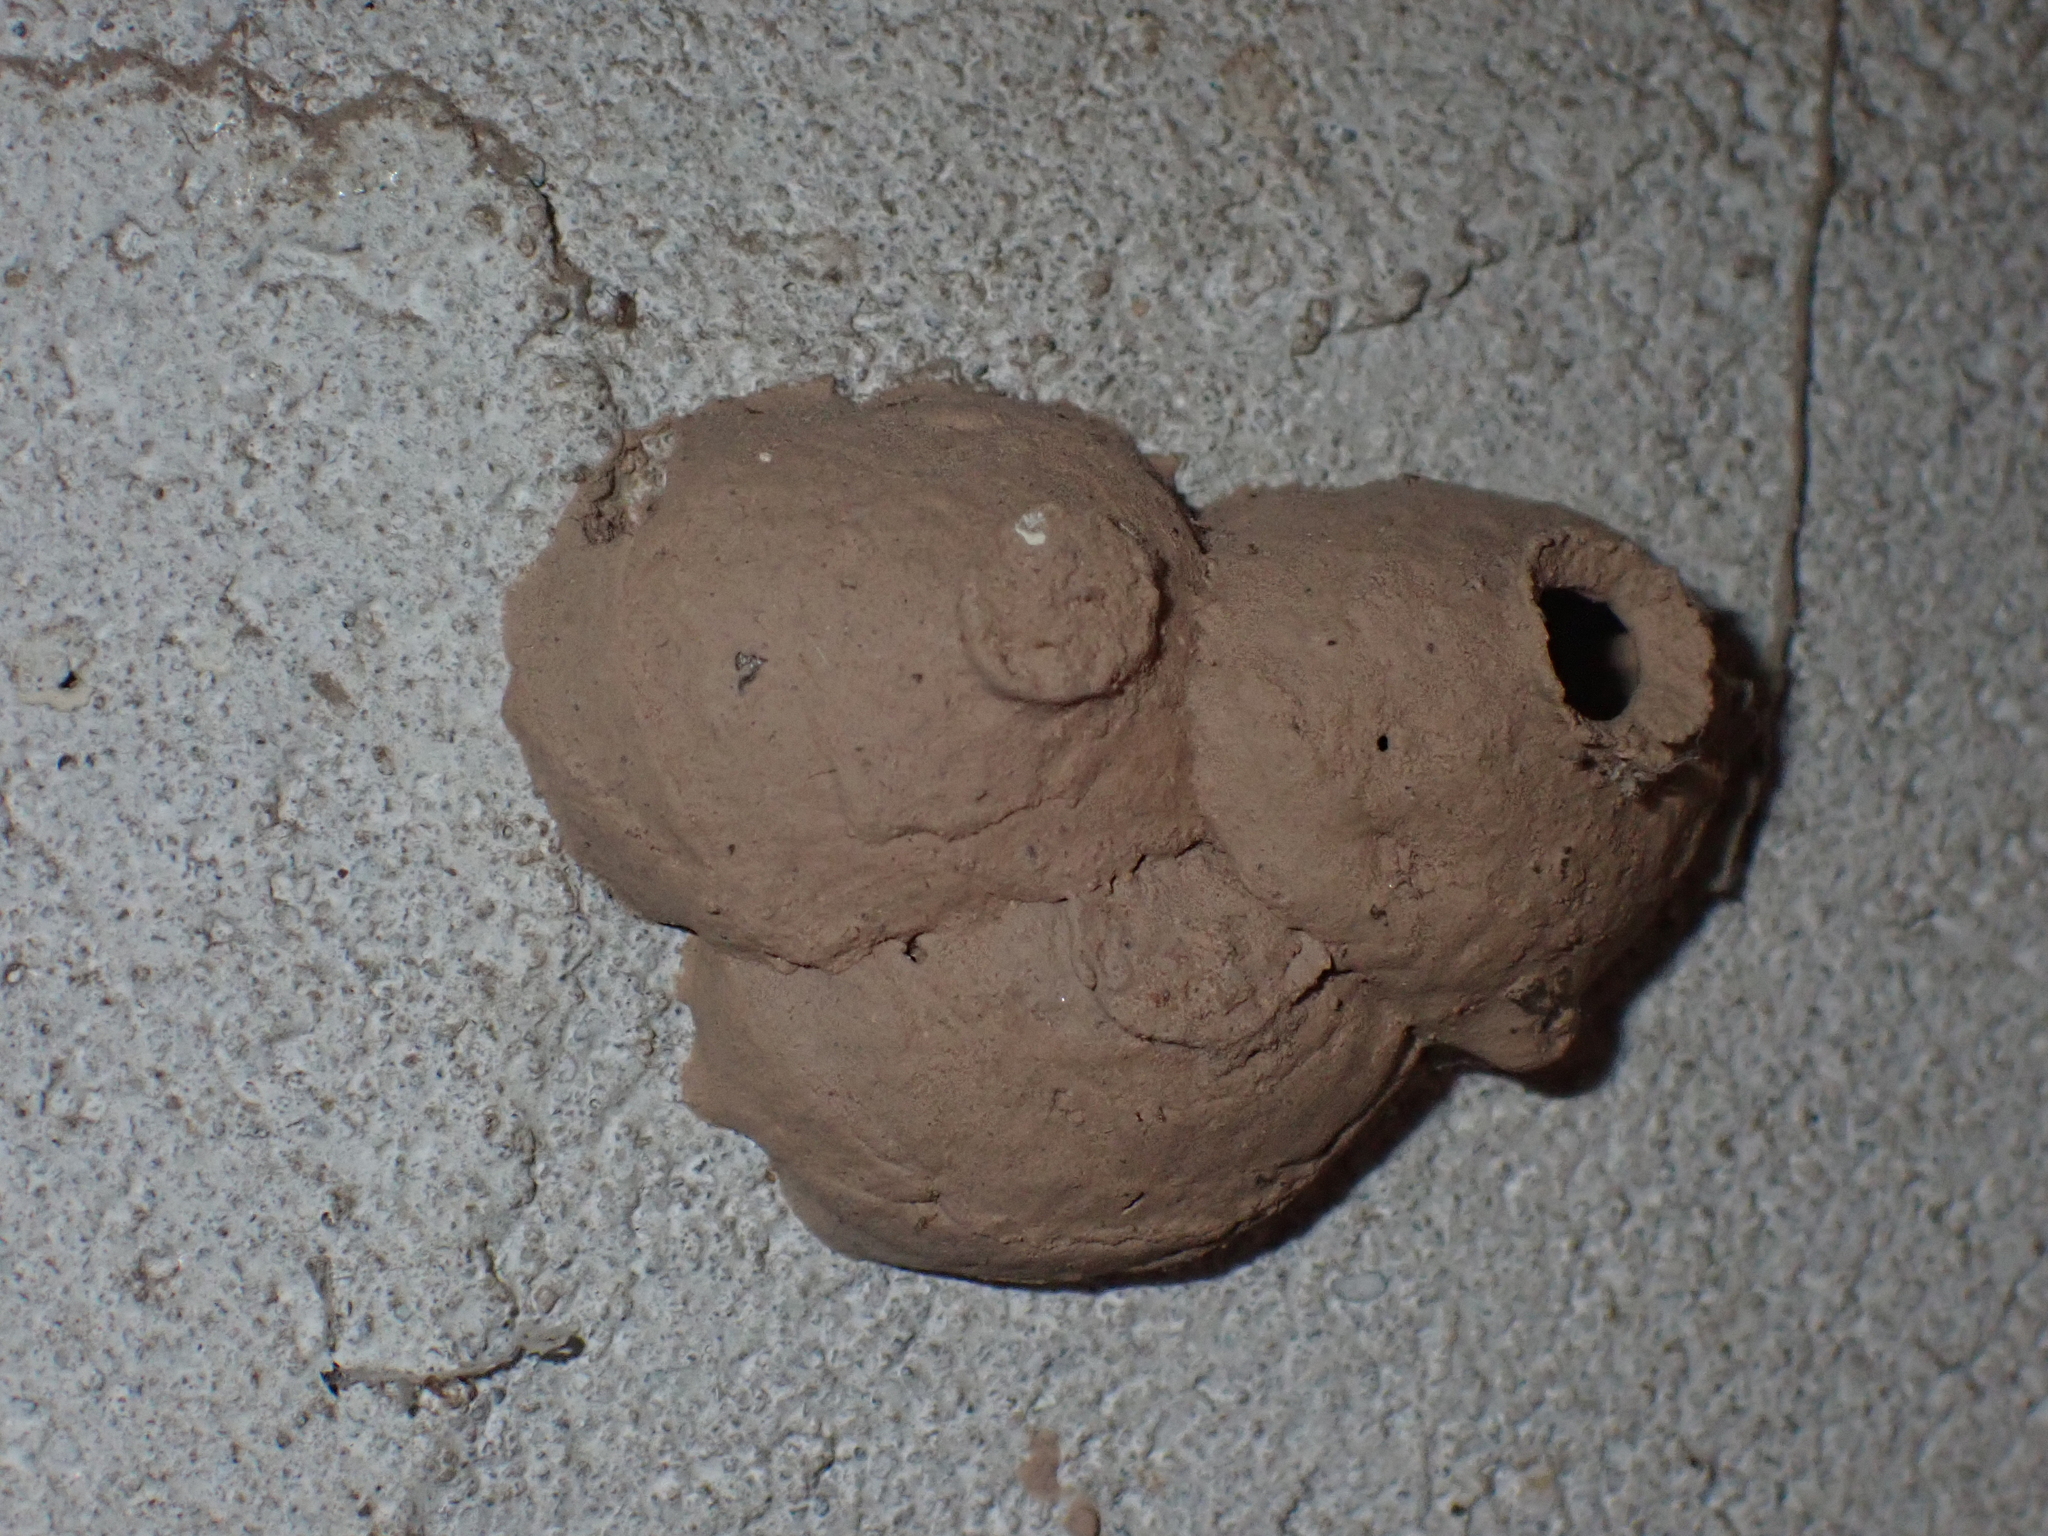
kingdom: Animalia
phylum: Arthropoda
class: Insecta
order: Hymenoptera
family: Eumenidae
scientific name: Eumenidae
